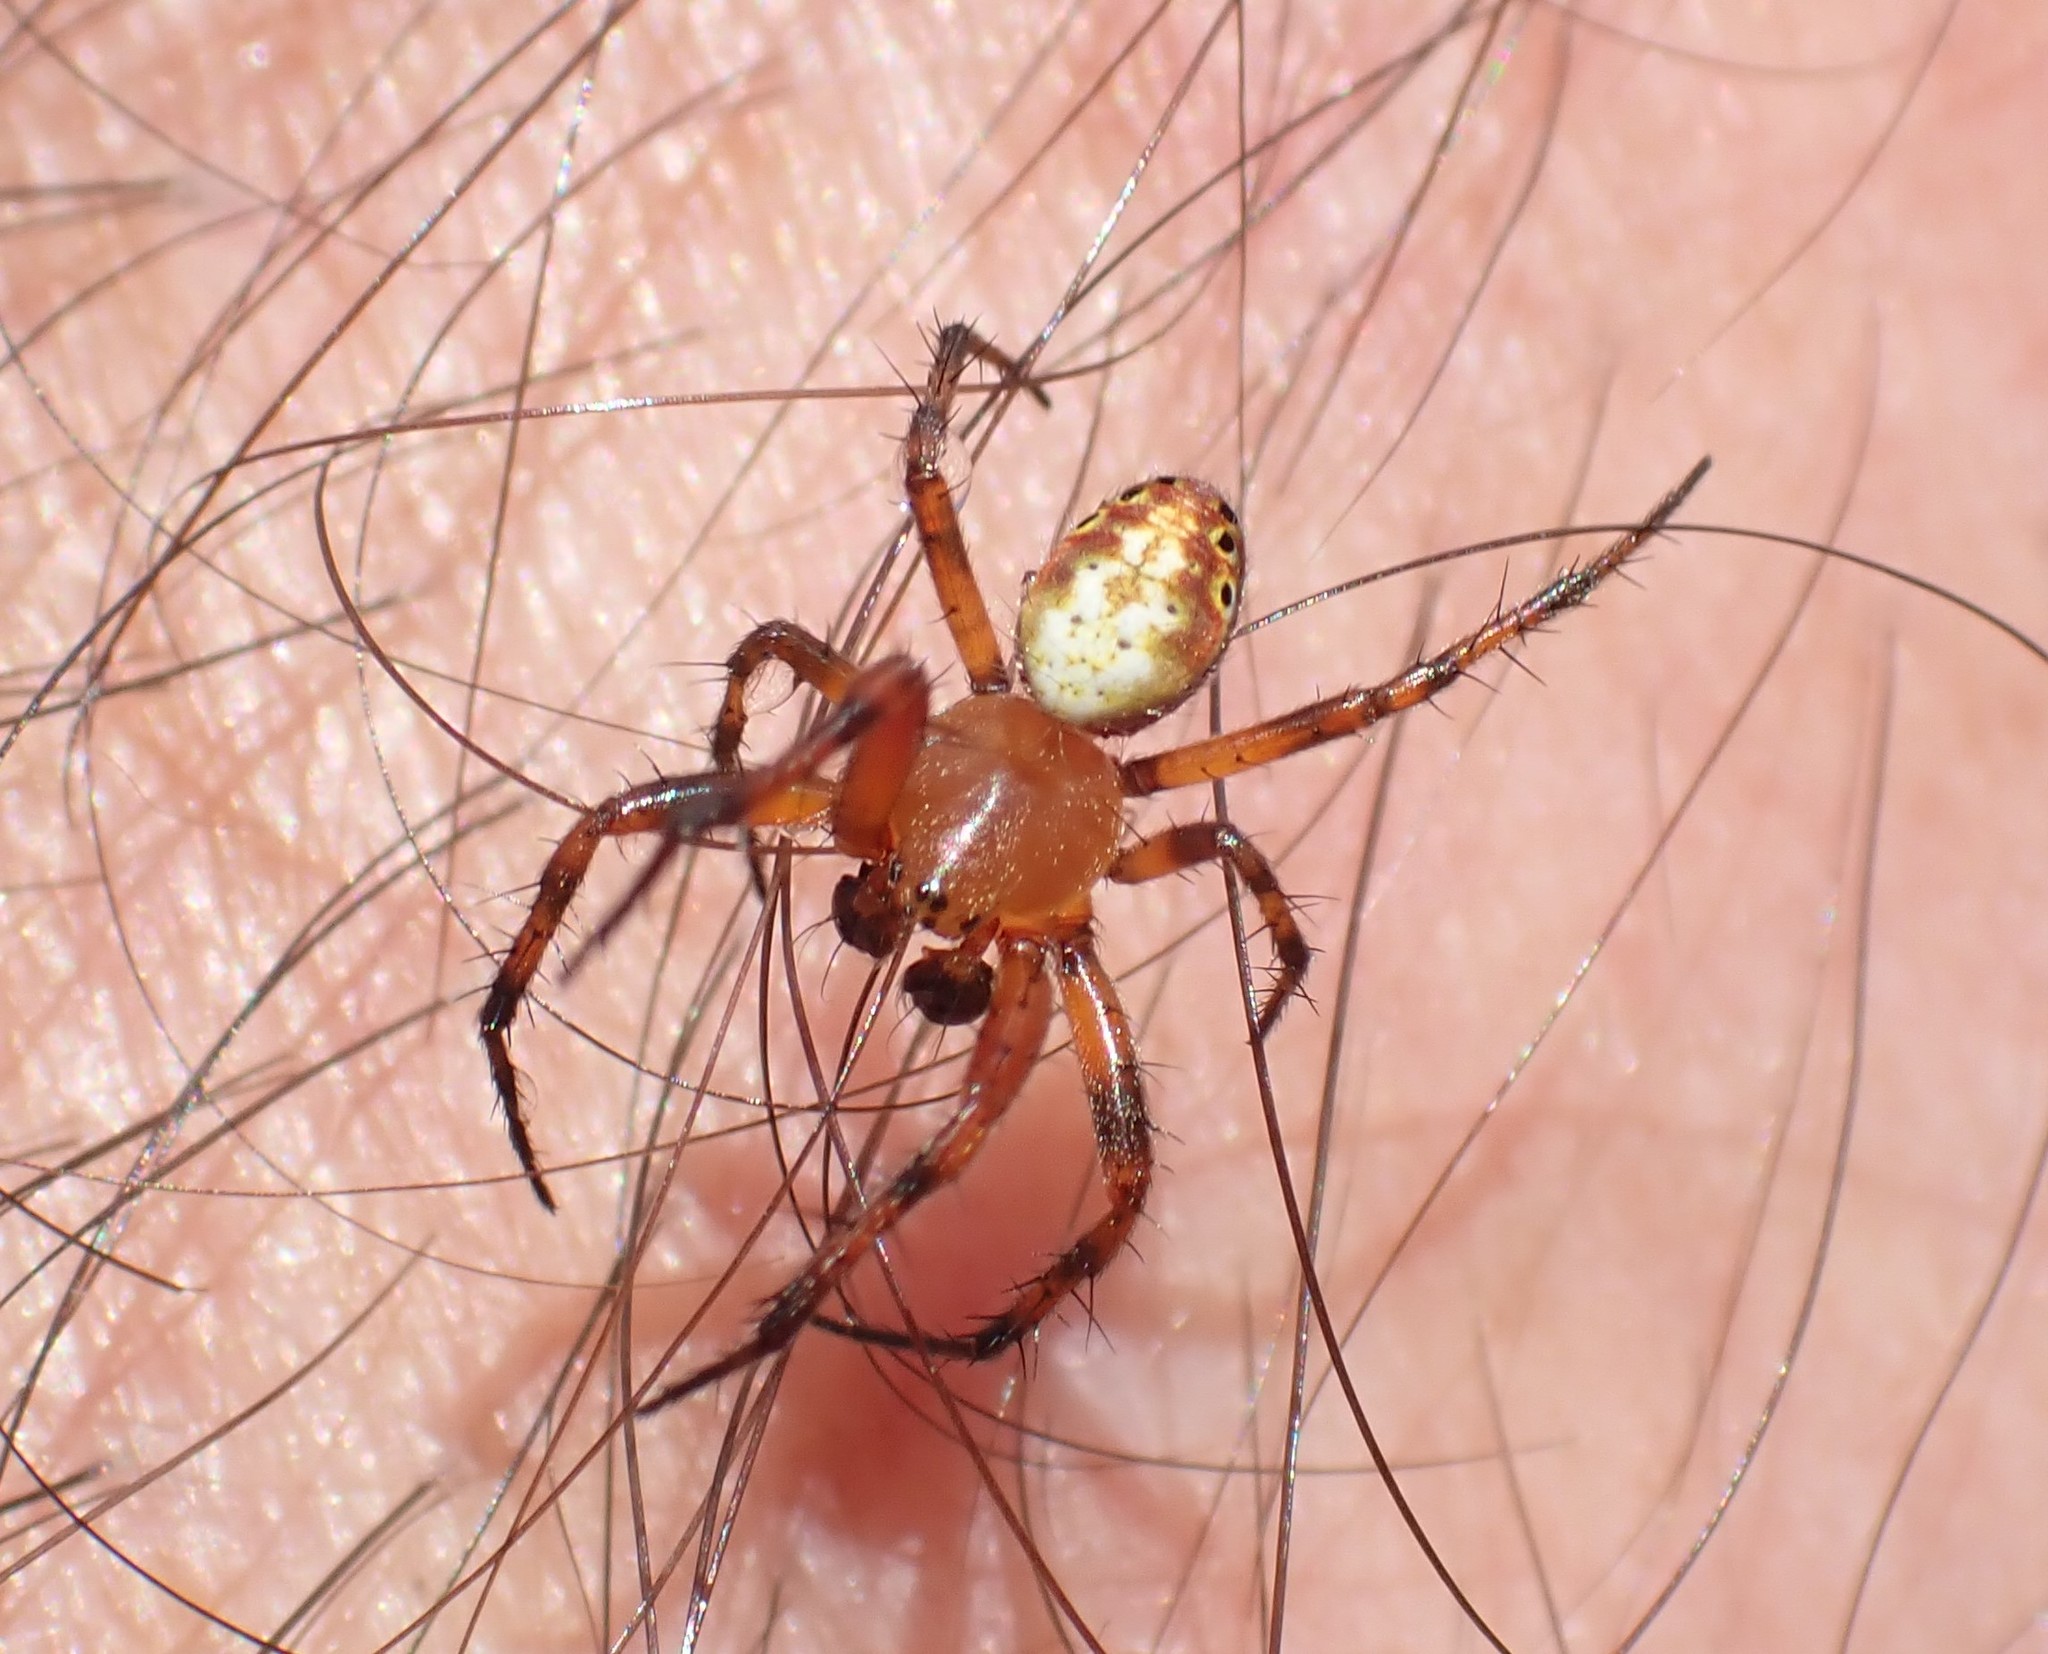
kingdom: Animalia
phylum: Arthropoda
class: Arachnida
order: Araneae
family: Araneidae
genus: Araniella
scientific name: Araniella displicata
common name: Sixspotted orb weaver
